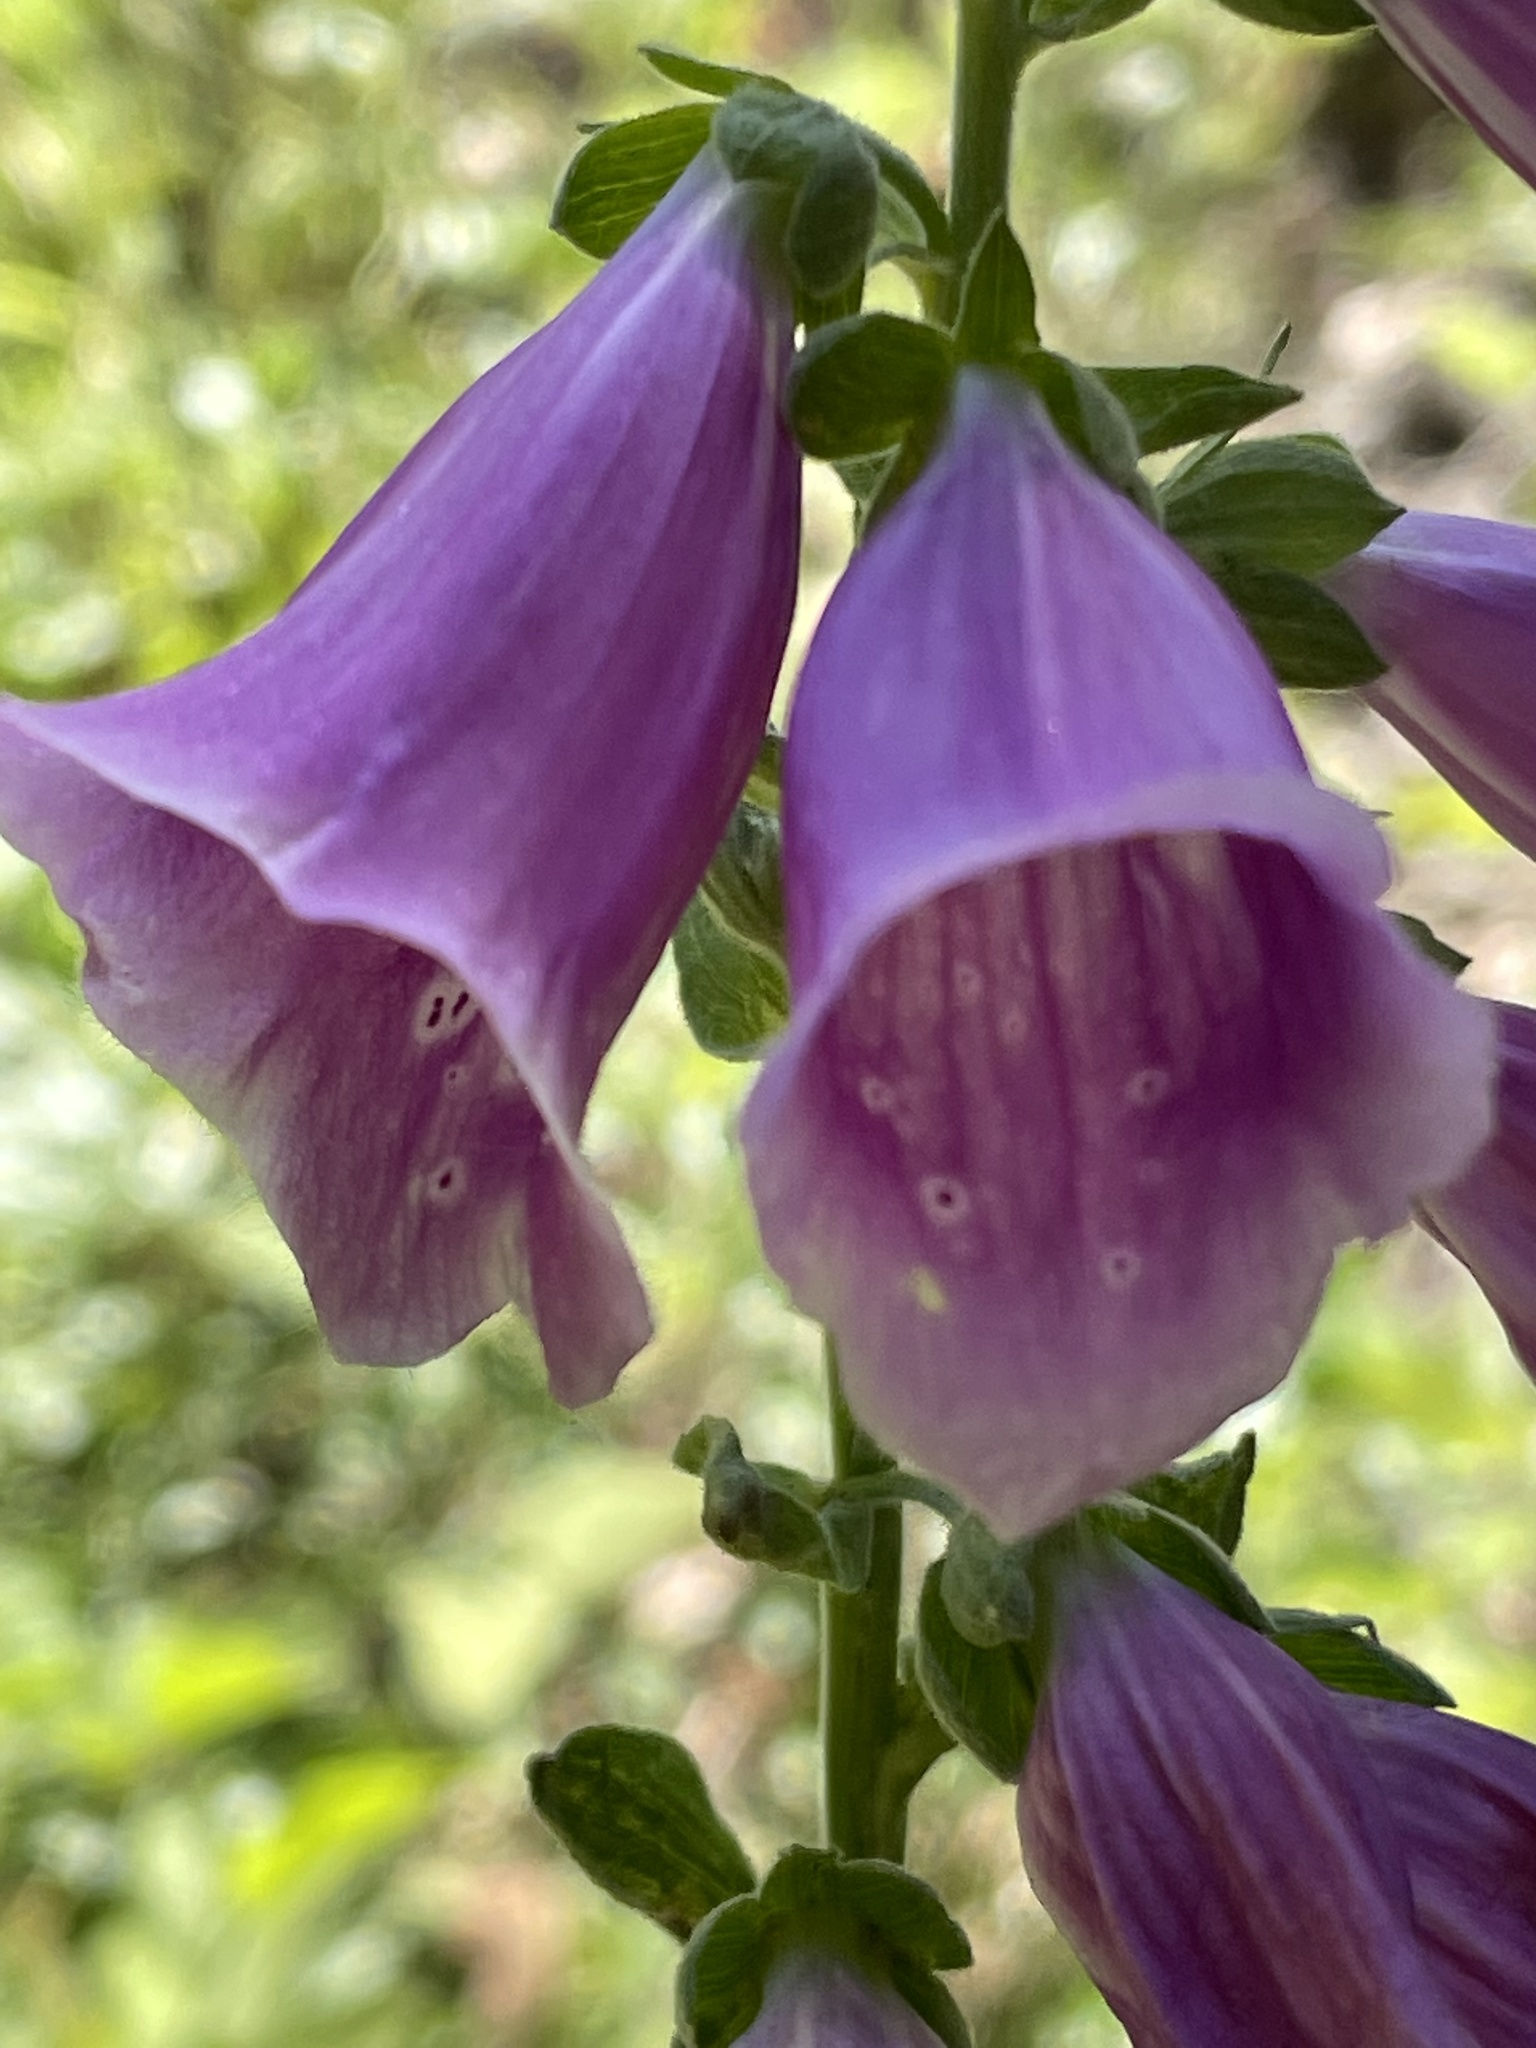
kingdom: Plantae
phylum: Tracheophyta
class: Magnoliopsida
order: Lamiales
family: Plantaginaceae
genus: Digitalis
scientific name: Digitalis purpurea
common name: Foxglove
